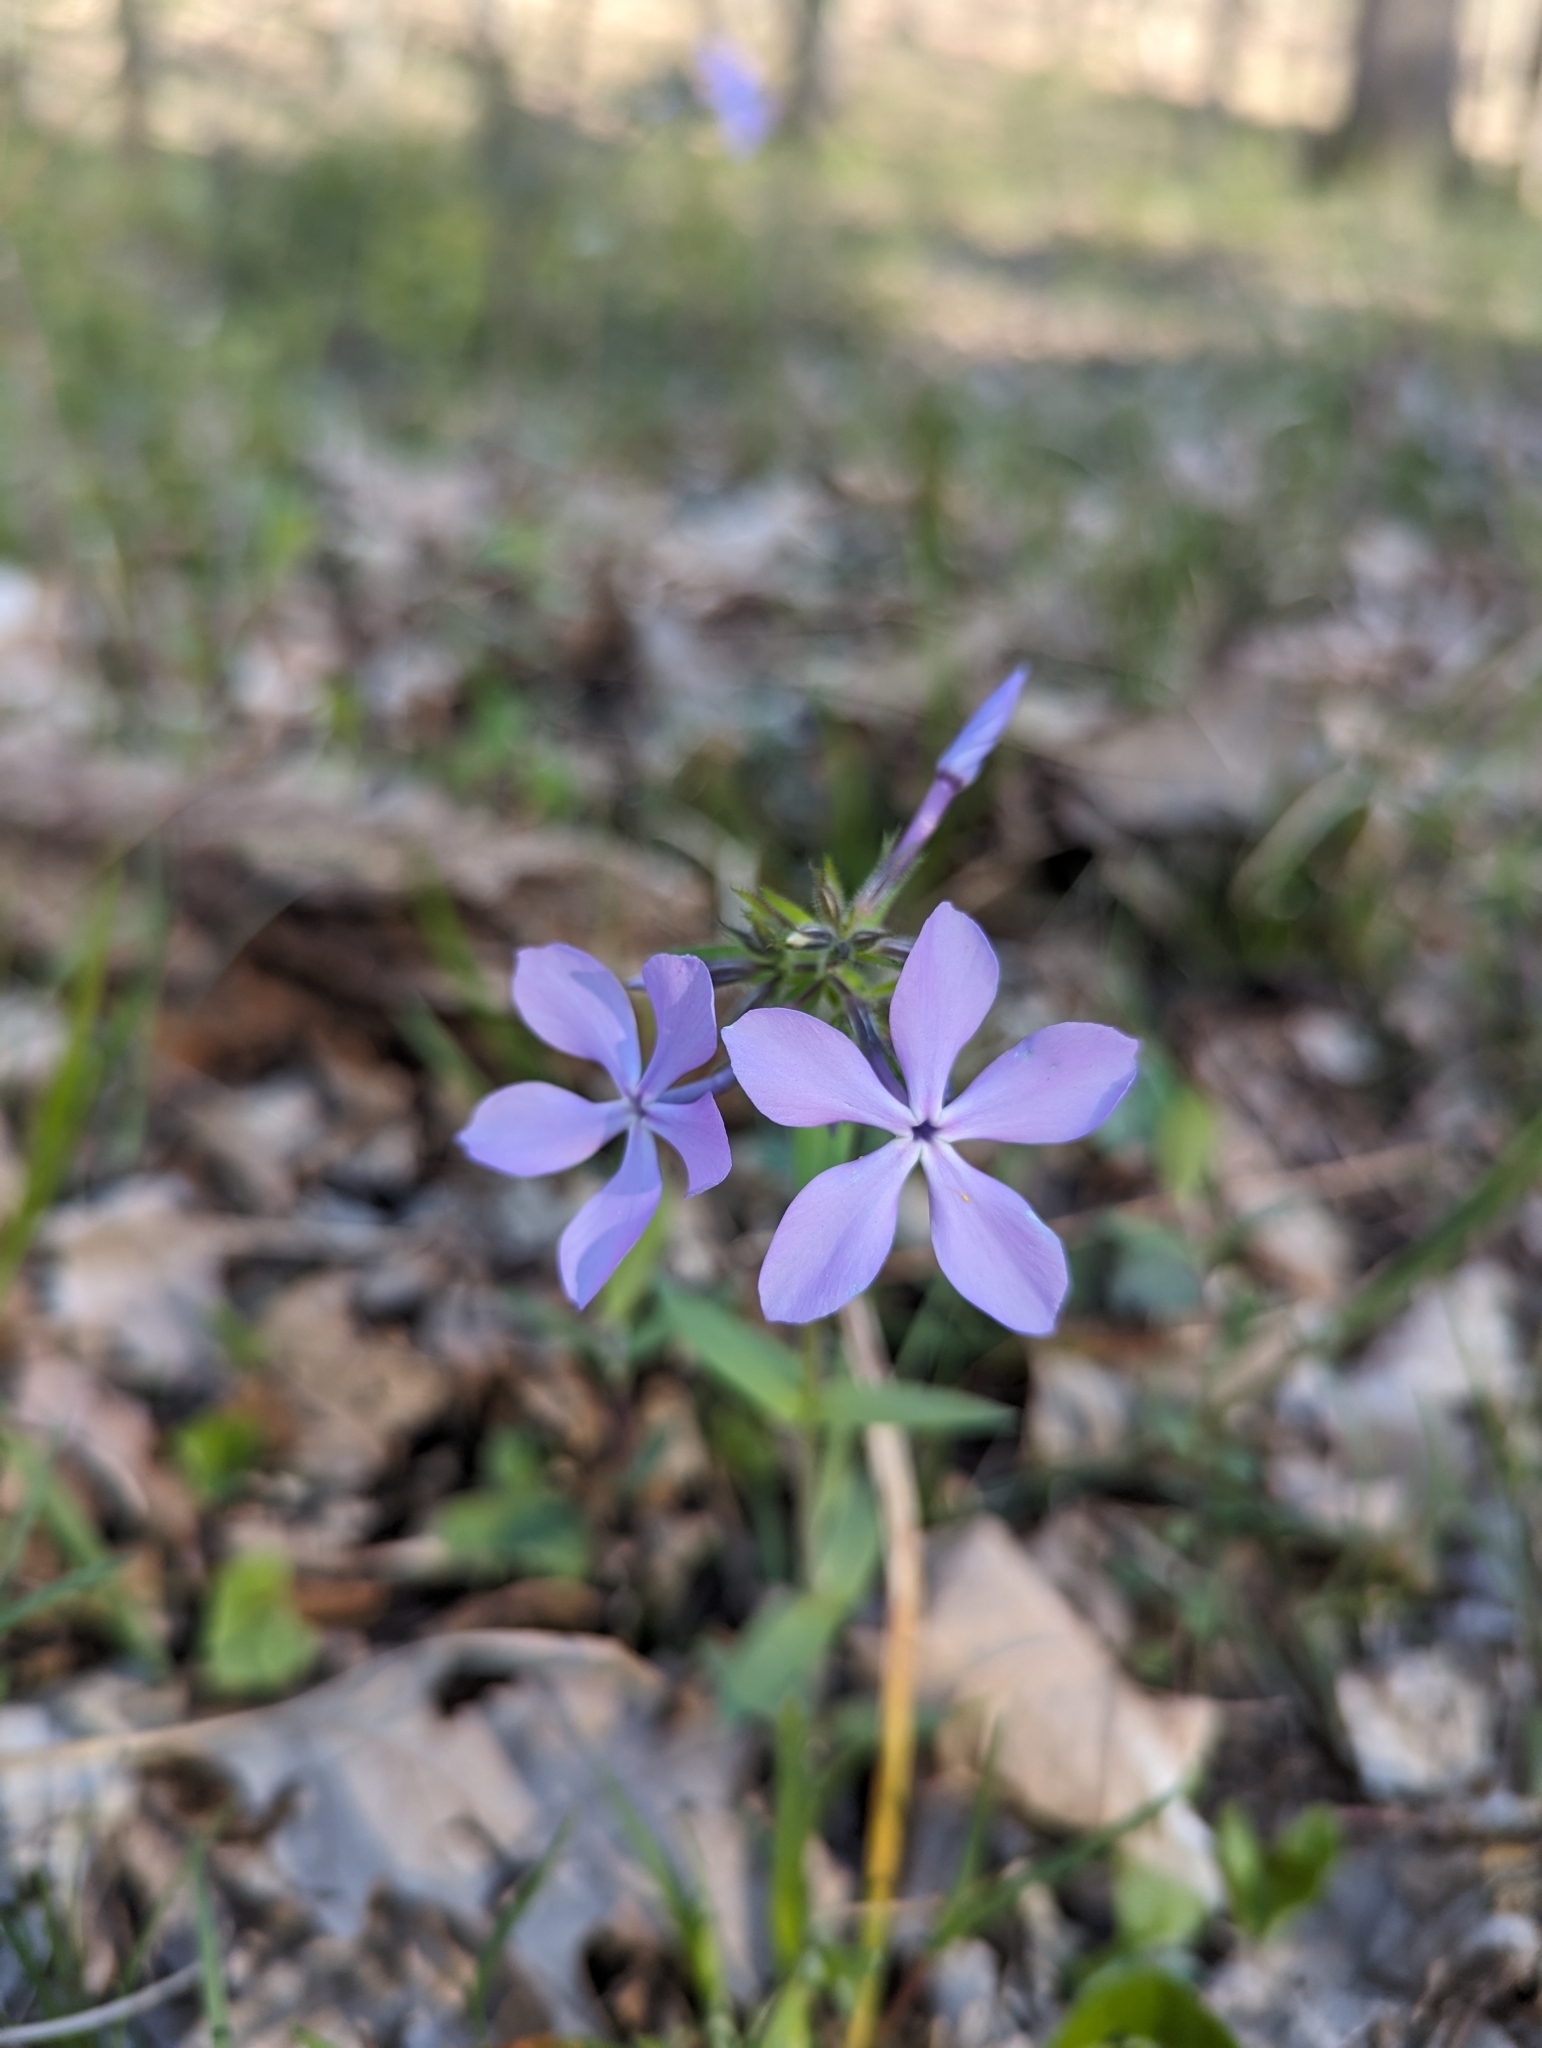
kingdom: Plantae
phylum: Tracheophyta
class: Magnoliopsida
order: Ericales
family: Polemoniaceae
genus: Phlox
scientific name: Phlox divaricata
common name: Blue phlox
